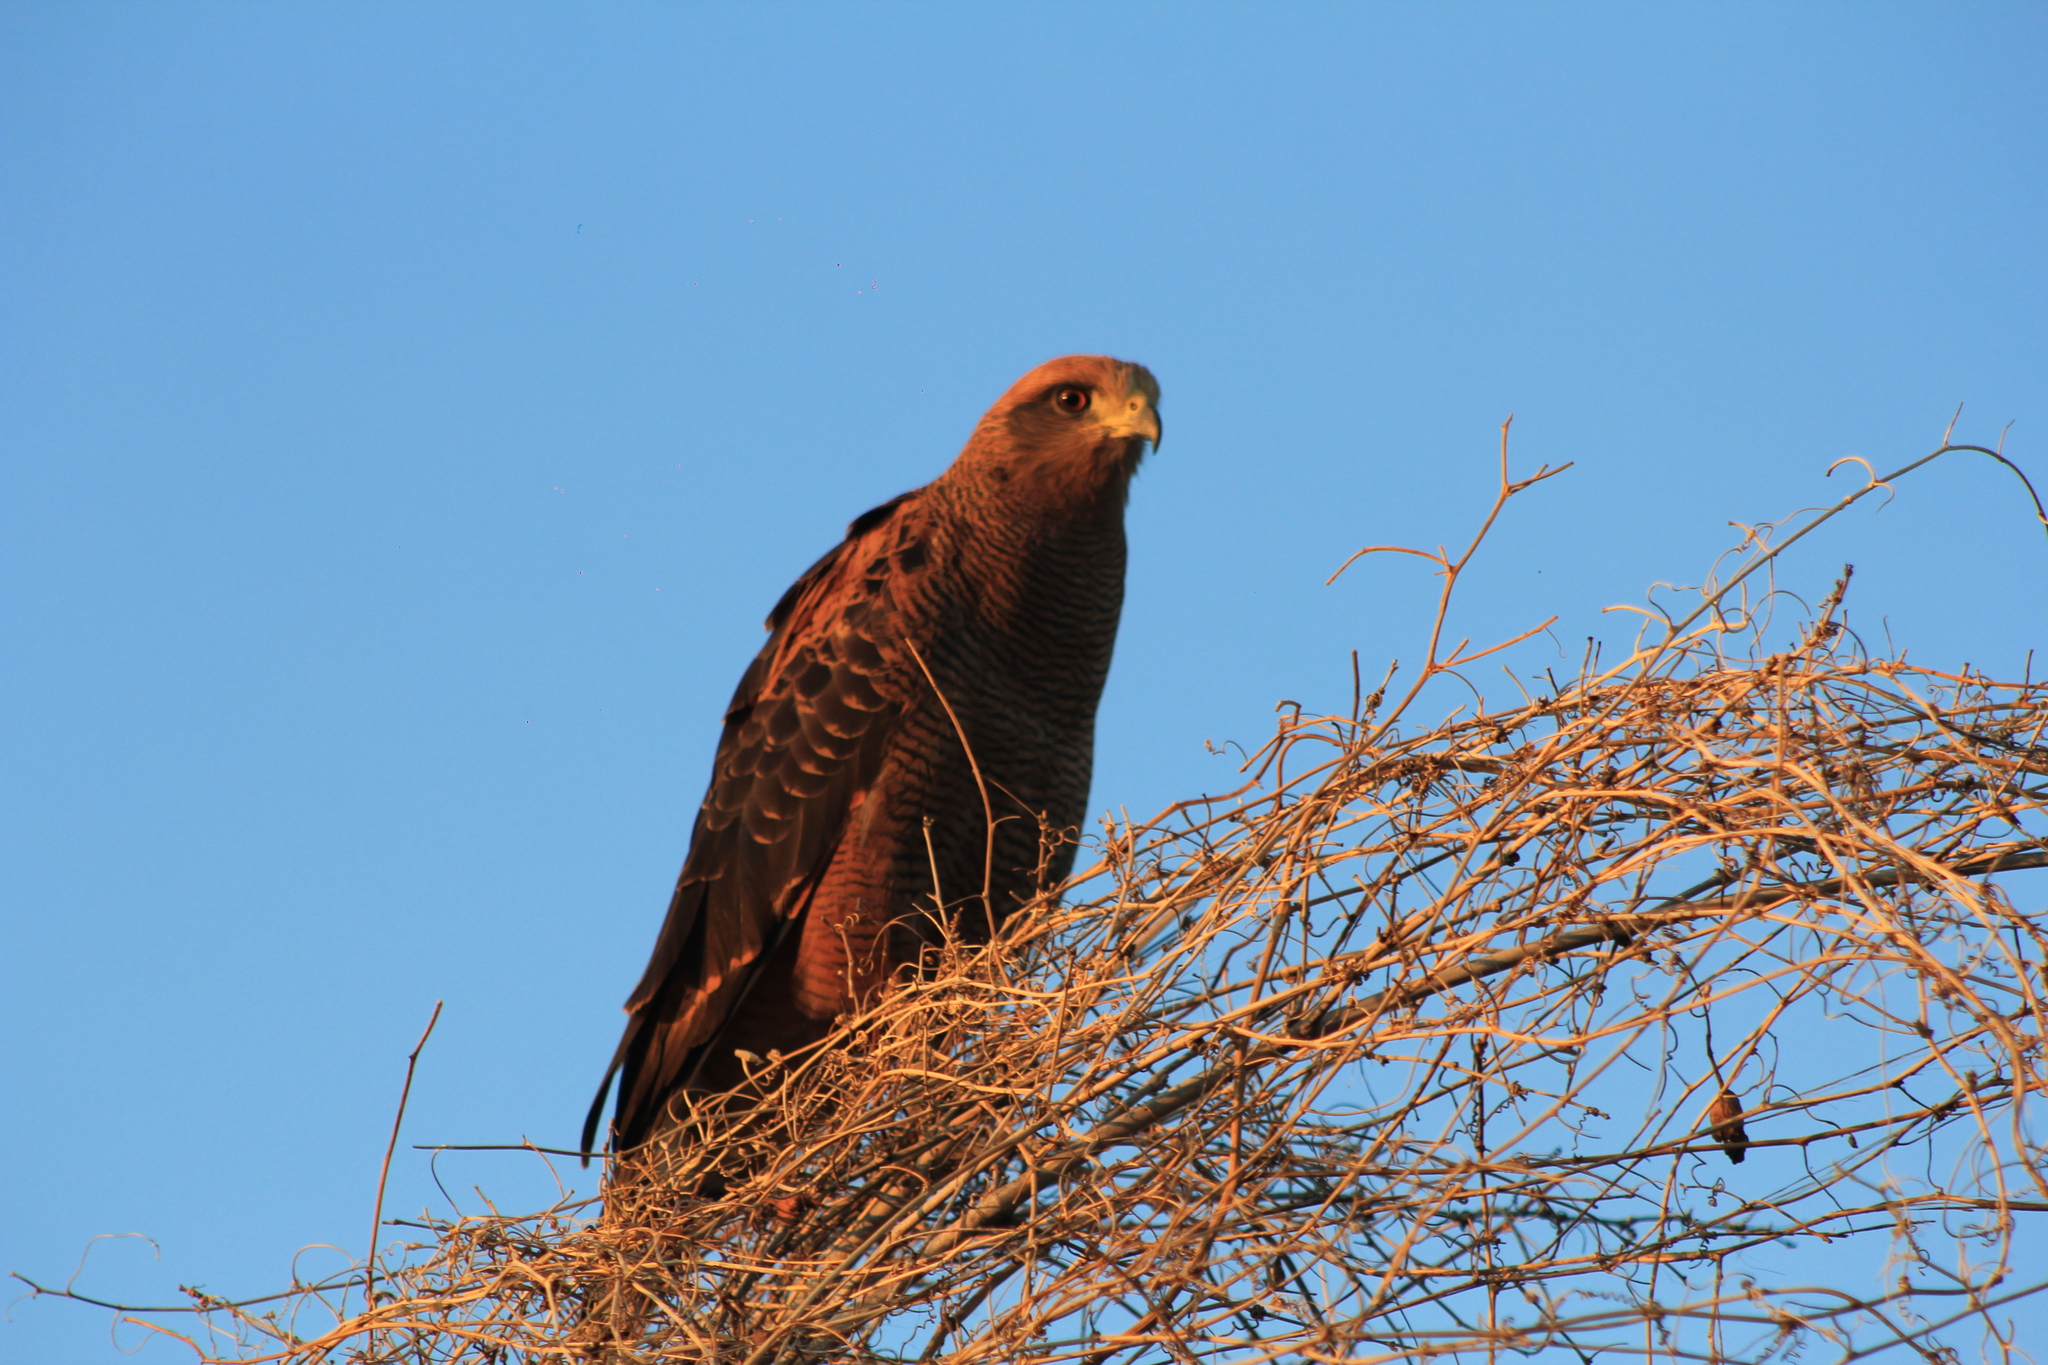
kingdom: Animalia
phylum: Chordata
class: Aves
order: Accipitriformes
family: Accipitridae
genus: Buteogallus
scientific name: Buteogallus meridionalis
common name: Savanna hawk
